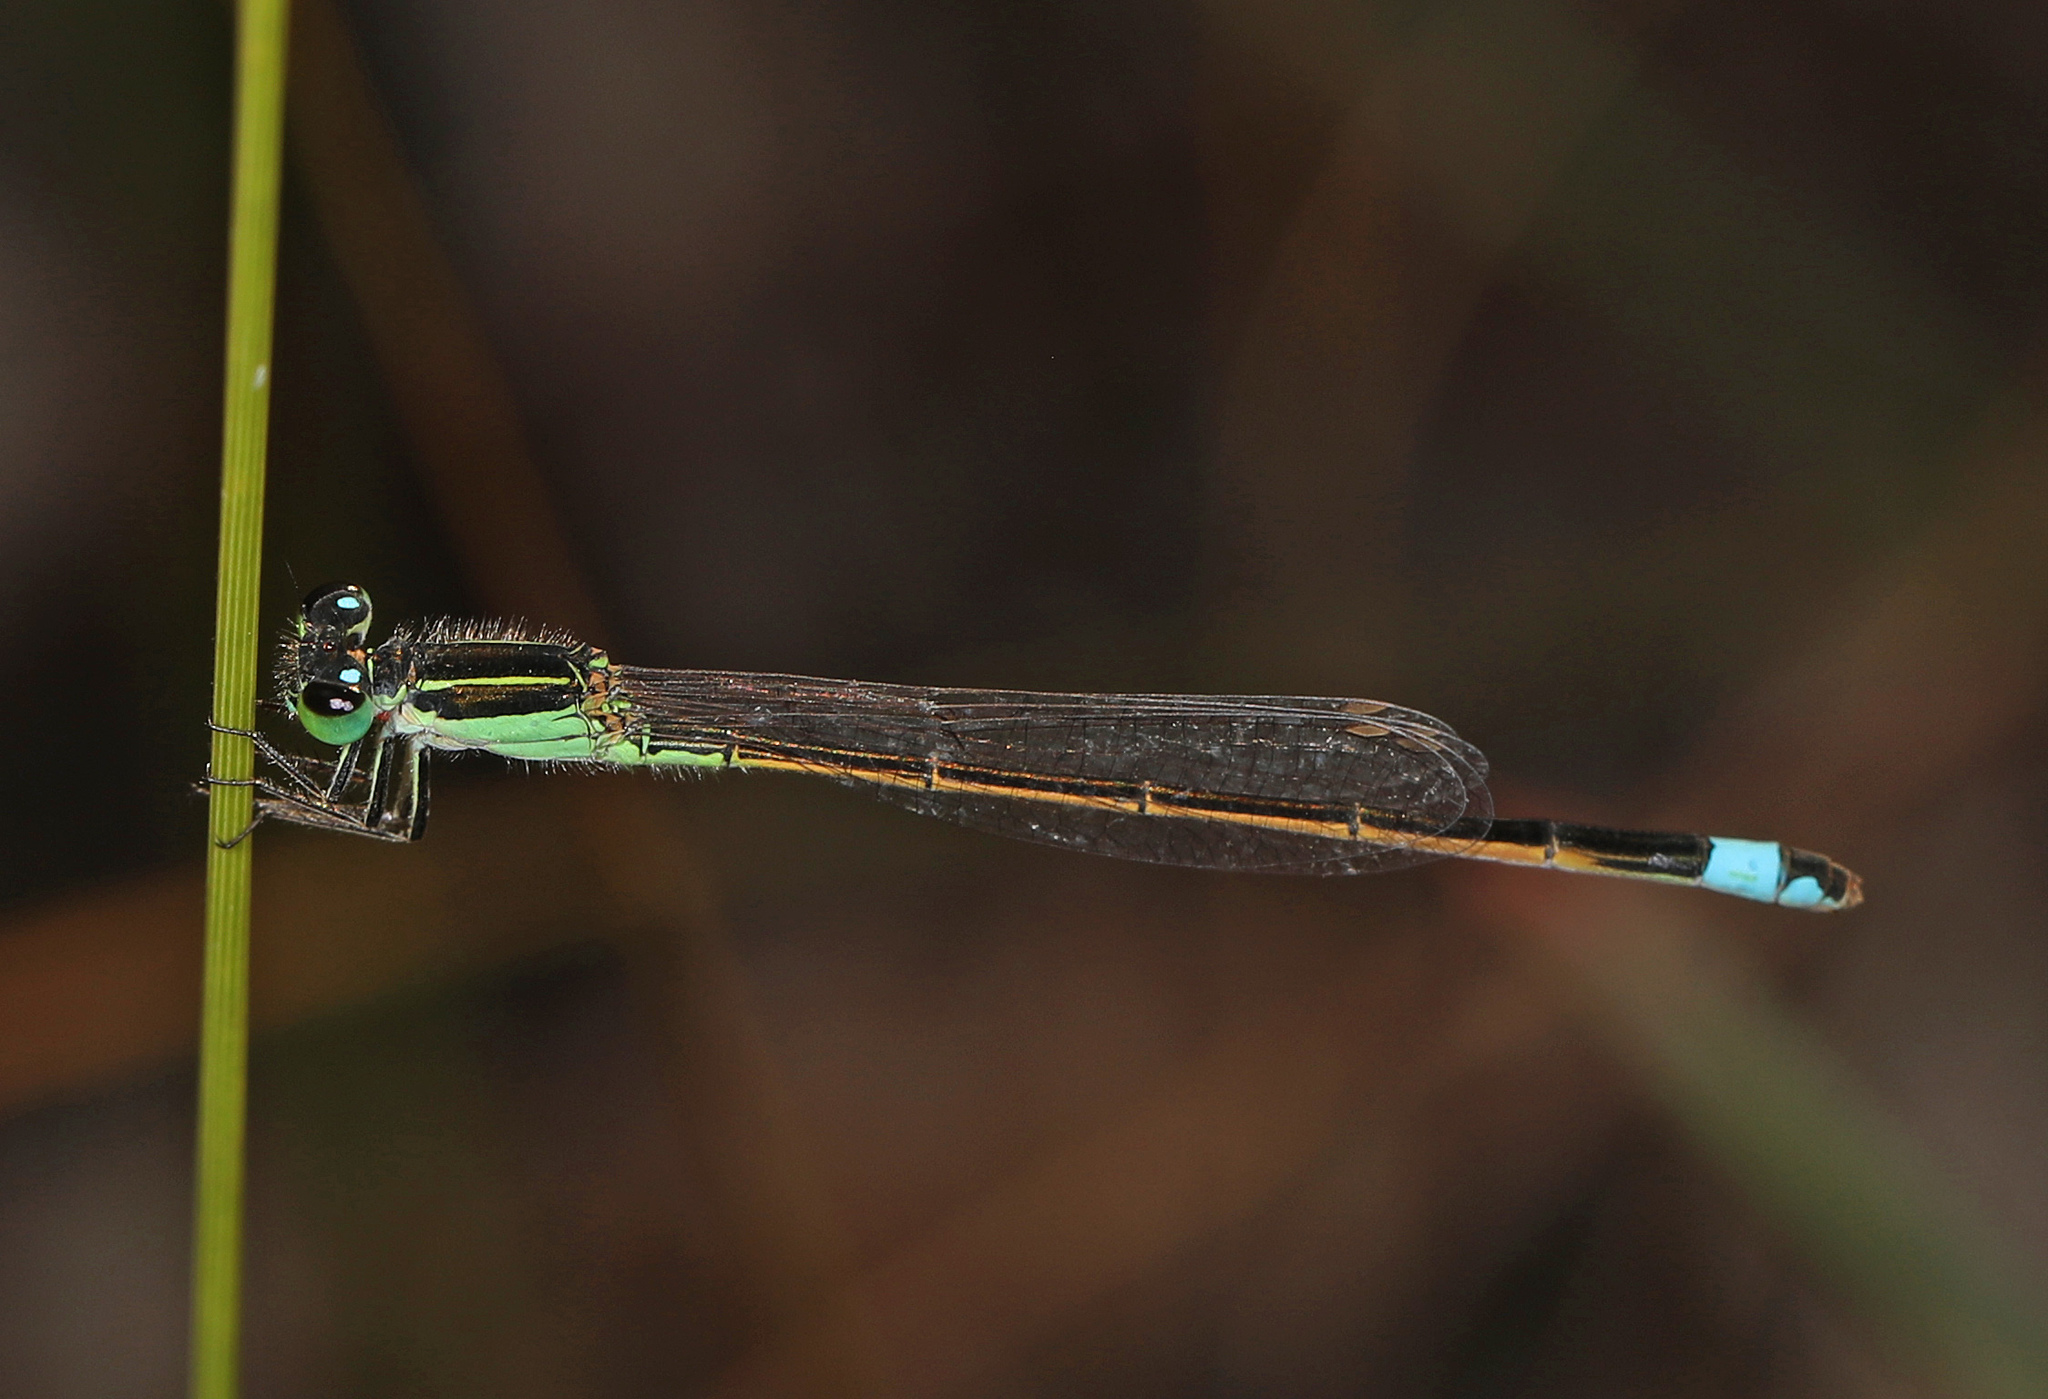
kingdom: Animalia
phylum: Arthropoda
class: Insecta
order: Odonata
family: Coenagrionidae
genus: Ischnura
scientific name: Ischnura ramburii
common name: Rambur's forktail
